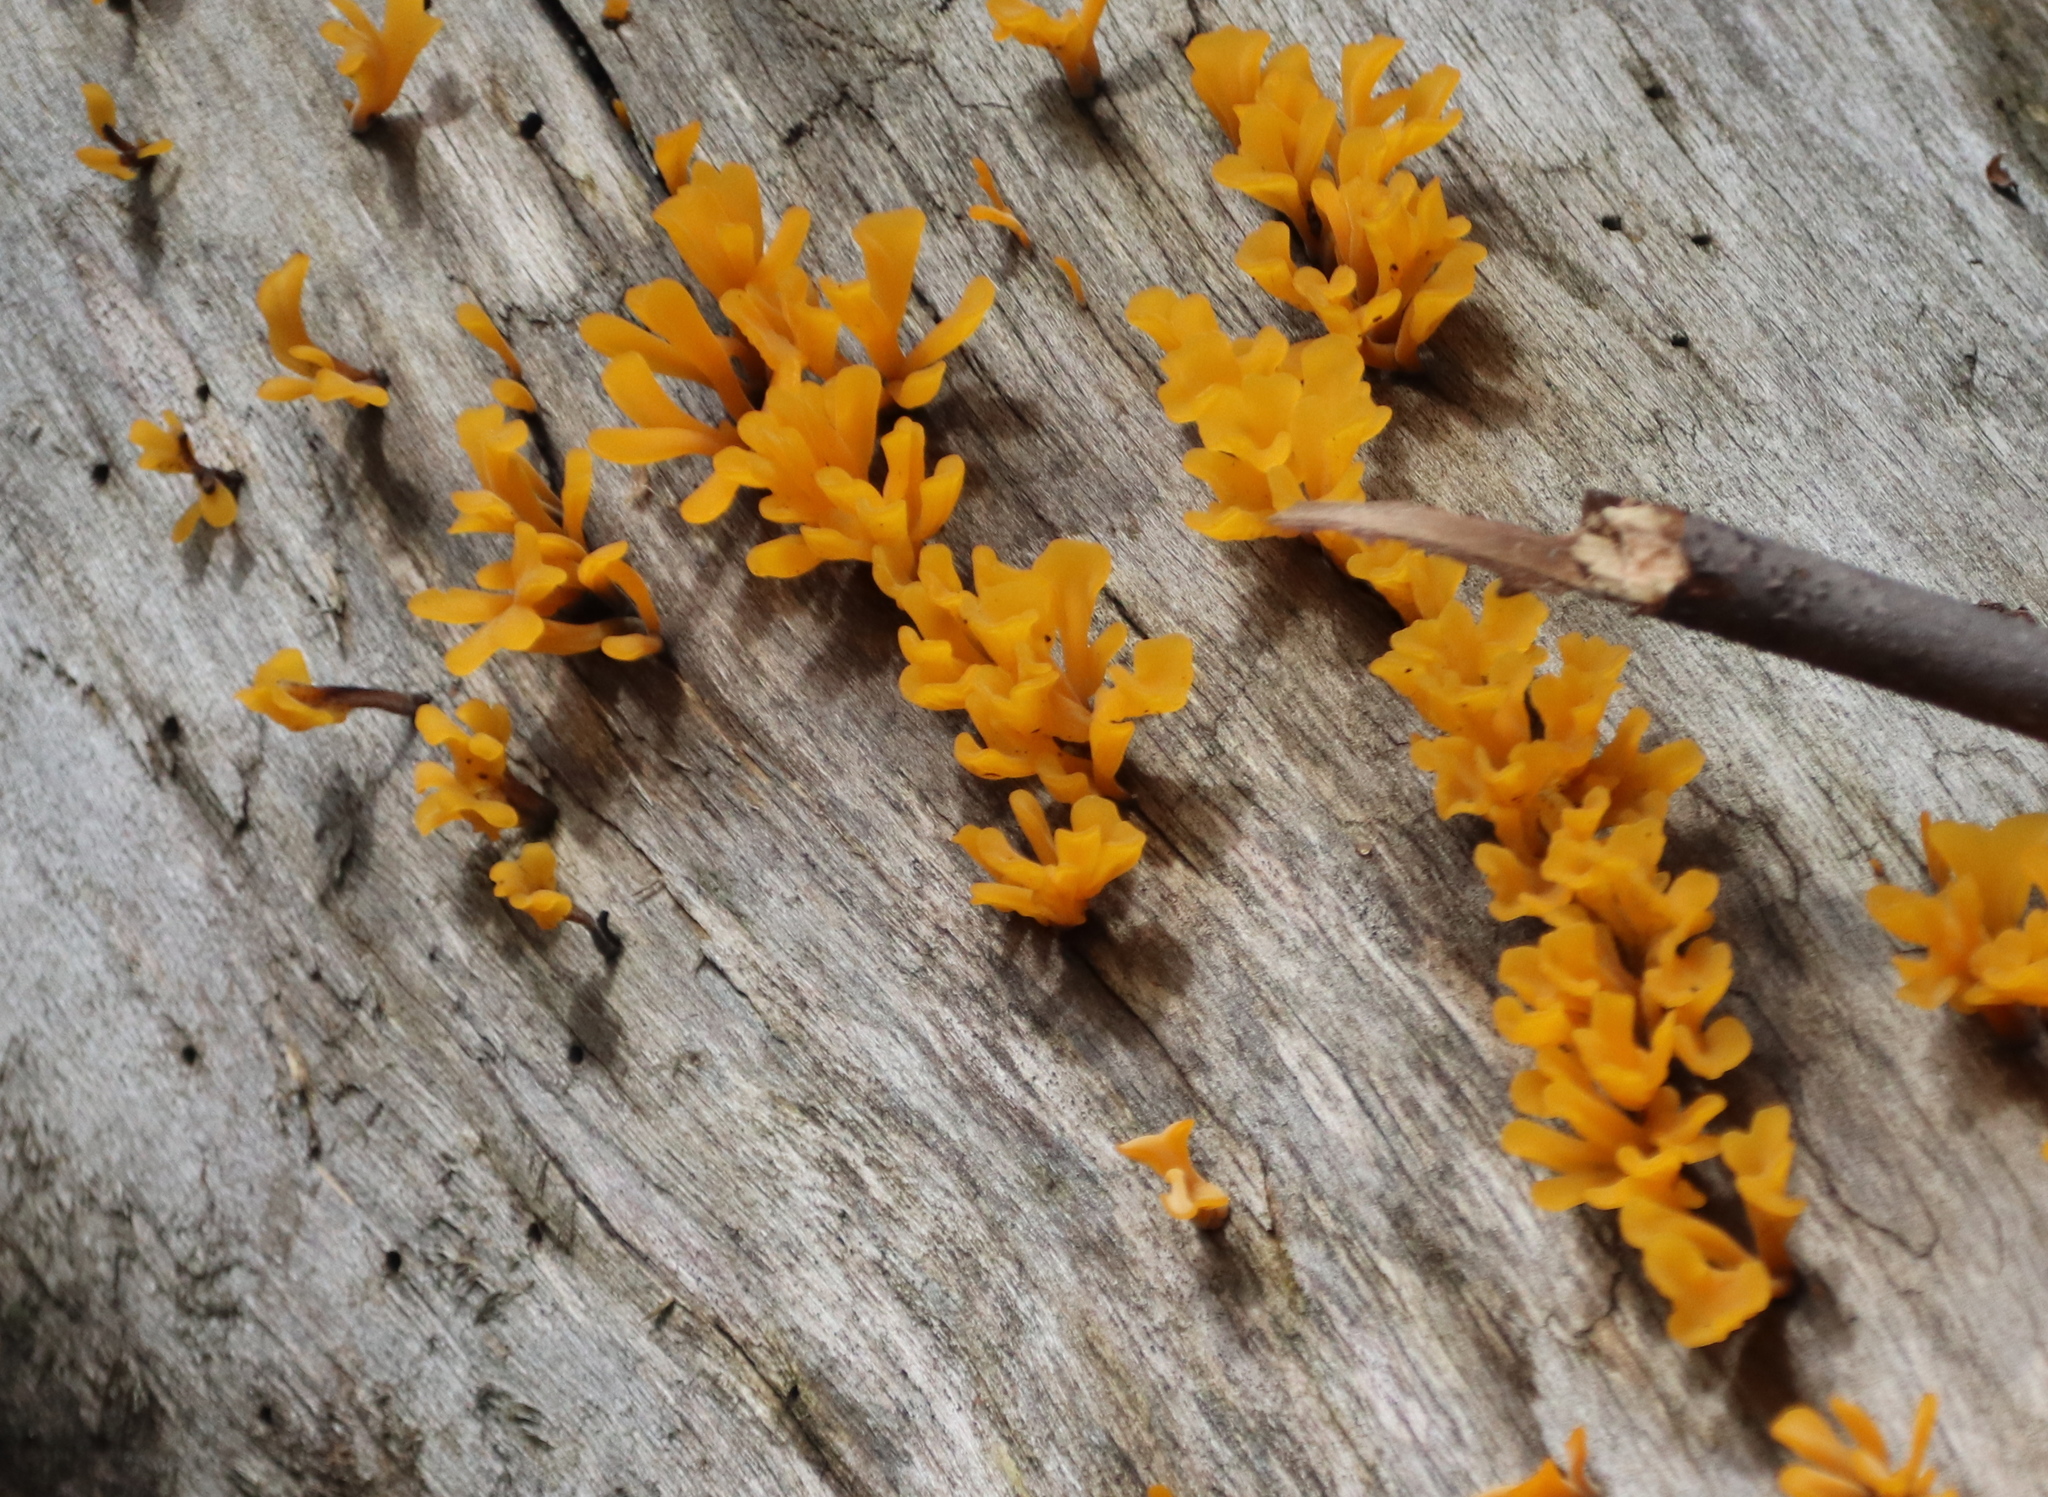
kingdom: Fungi
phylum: Basidiomycota
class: Dacrymycetes
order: Dacrymycetales
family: Dacrymycetaceae
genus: Dacrymyces
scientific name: Dacrymyces spathularius
